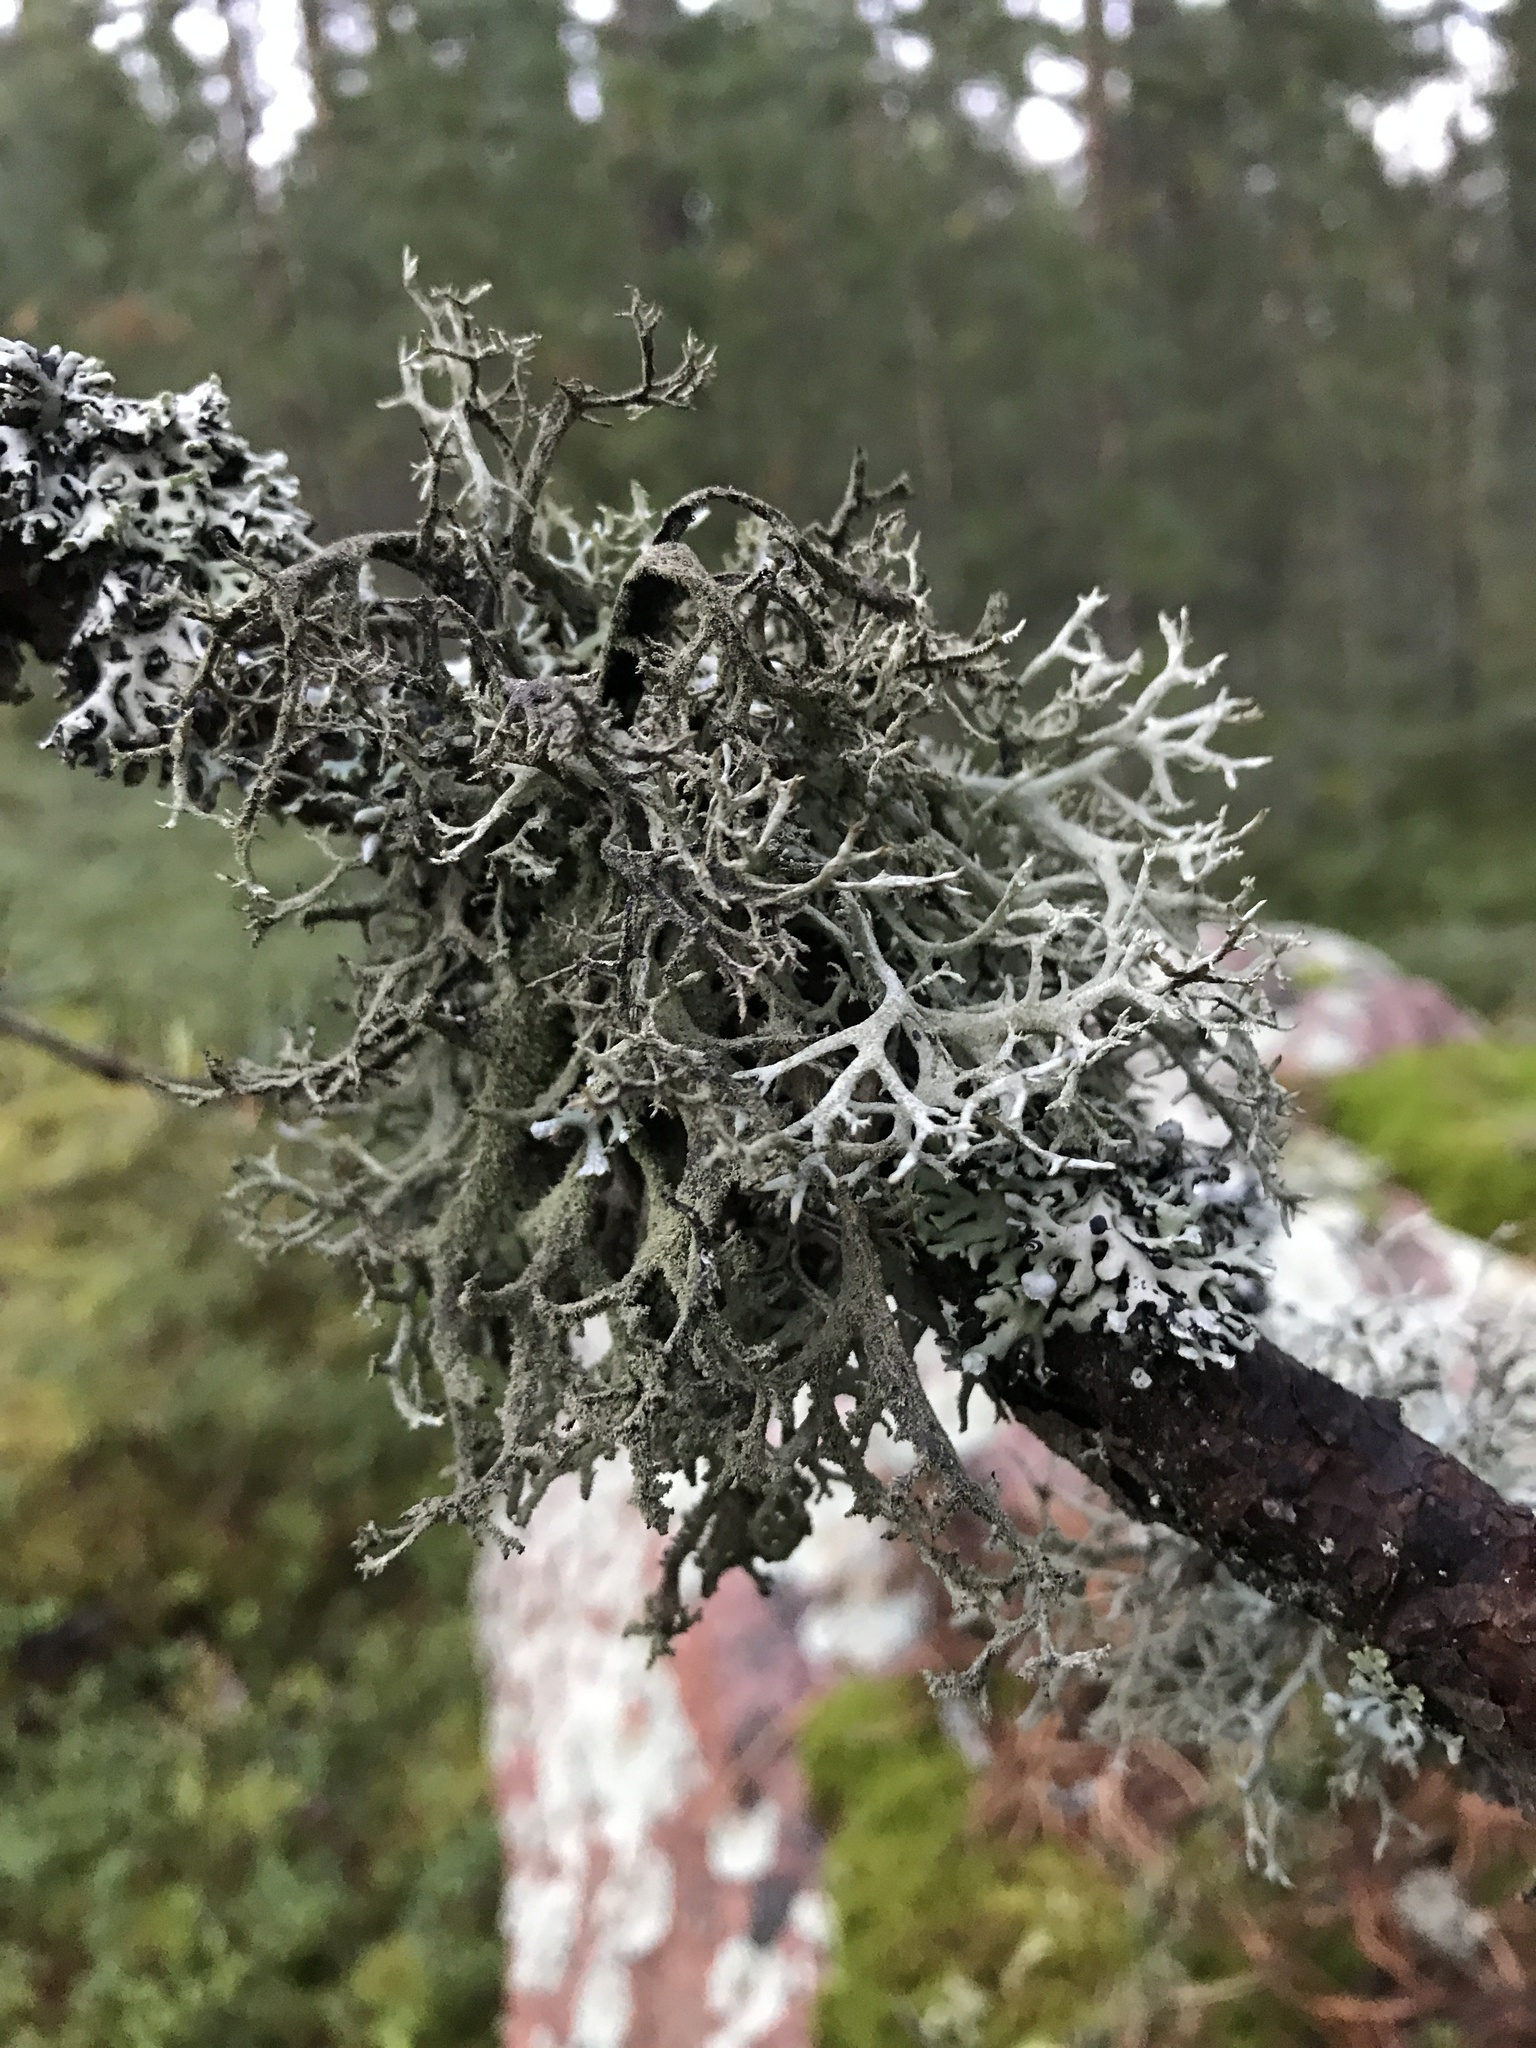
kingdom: Fungi
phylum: Ascomycota
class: Lecanoromycetes
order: Lecanorales
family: Parmeliaceae
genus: Pseudevernia
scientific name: Pseudevernia furfuracea
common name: Tree moss
